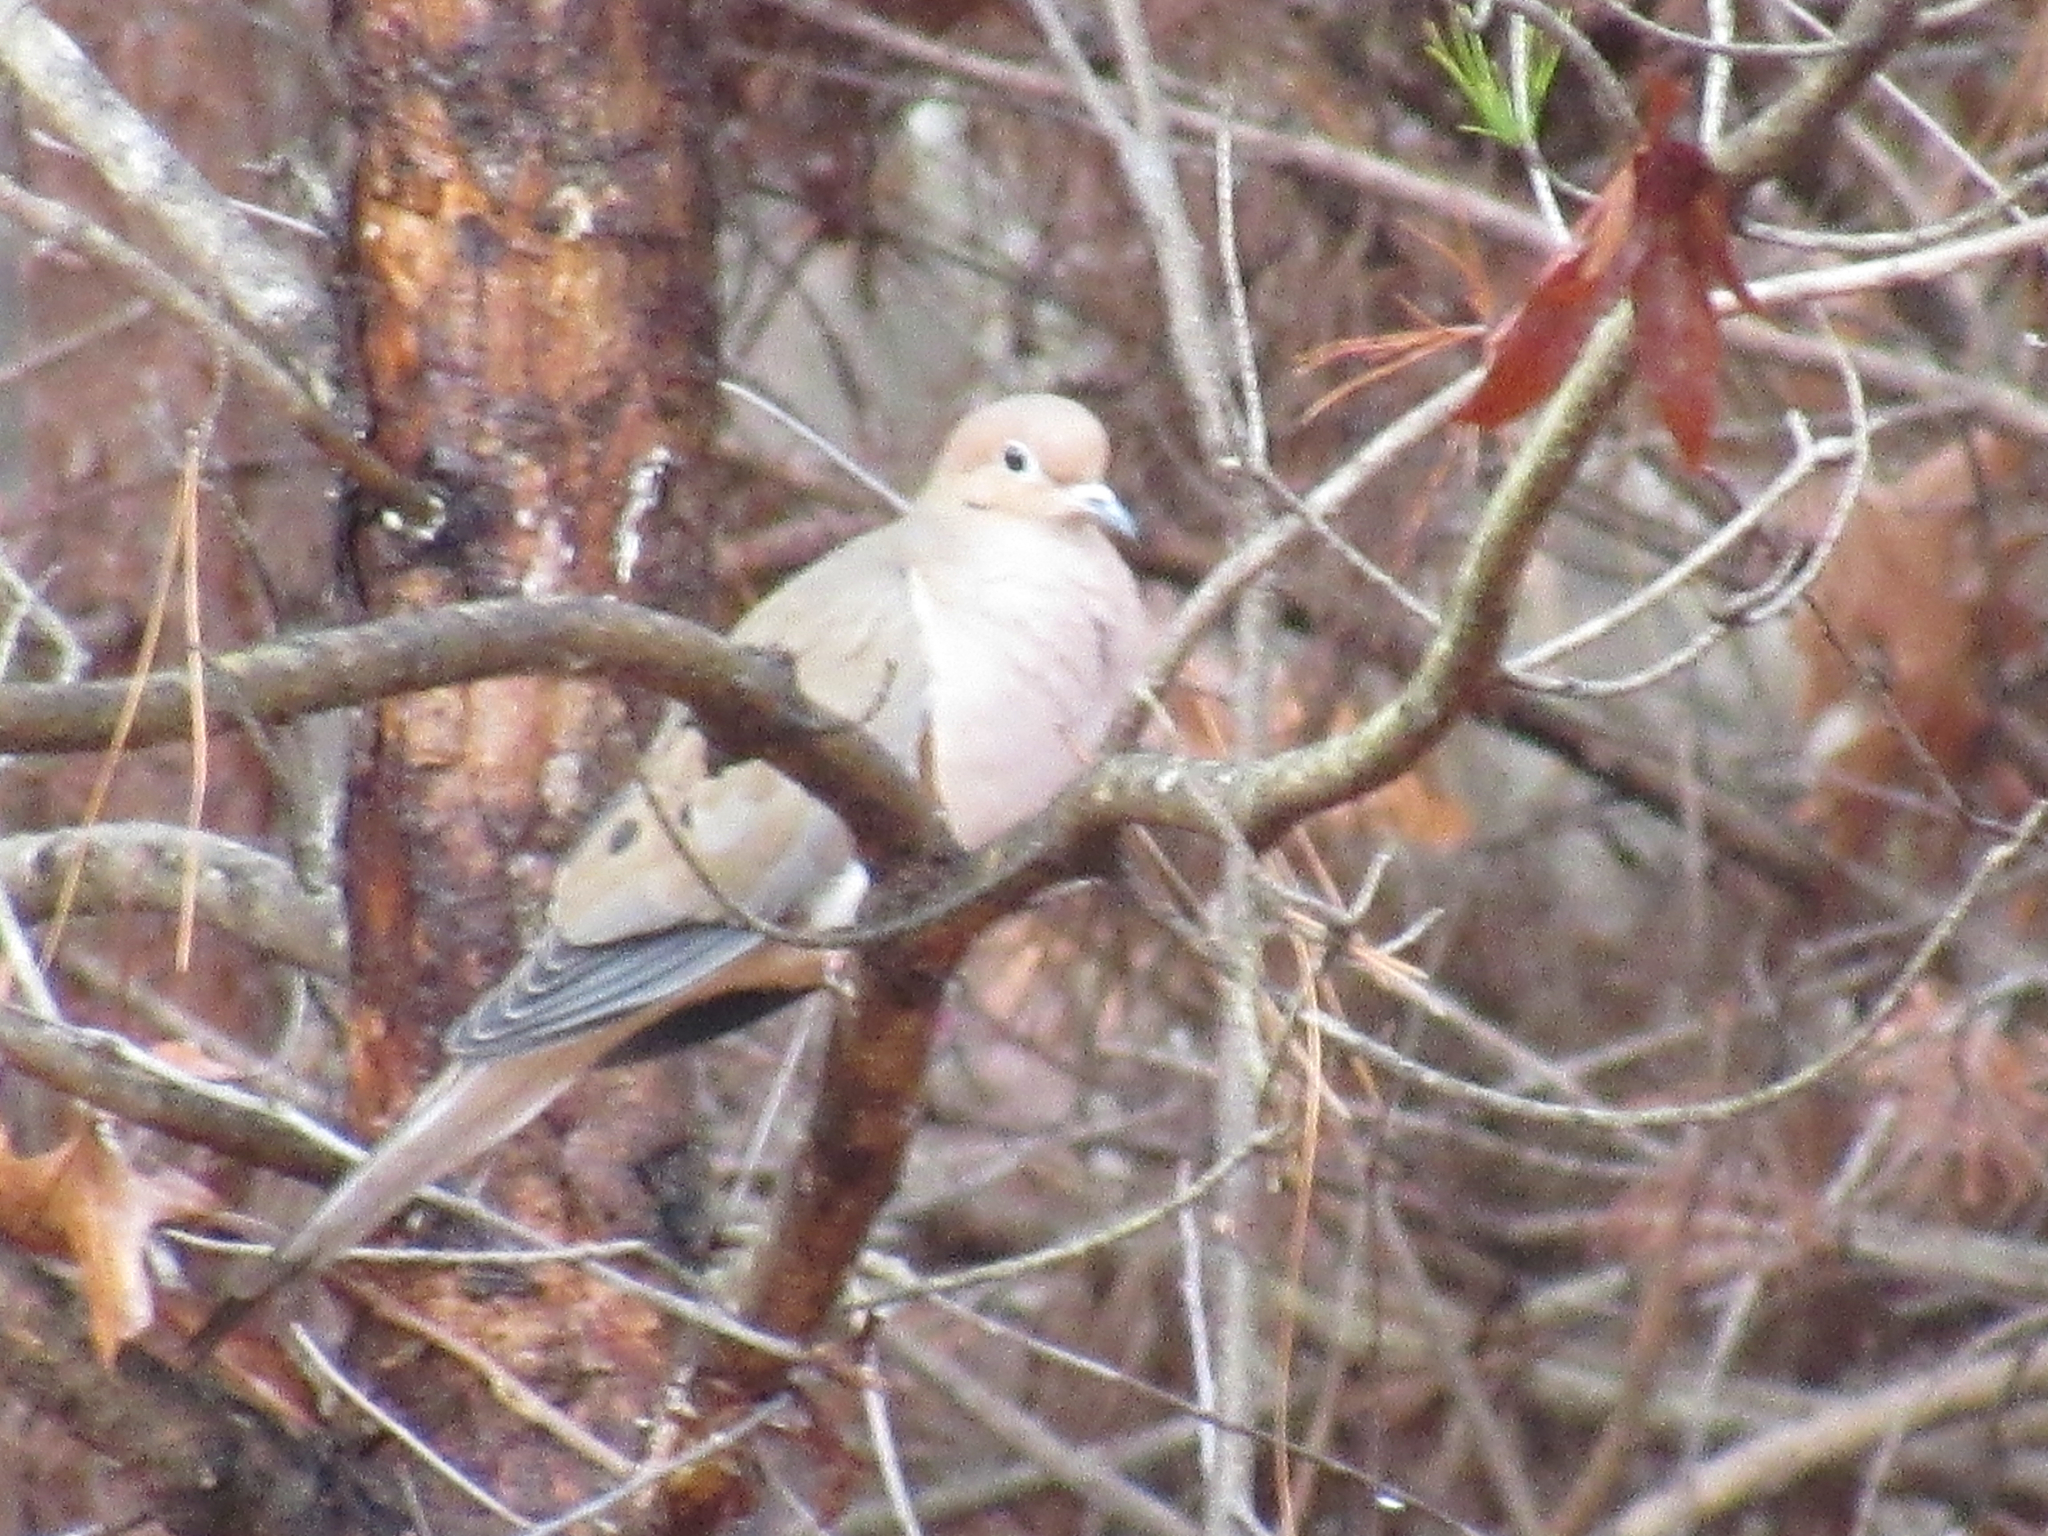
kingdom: Animalia
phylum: Chordata
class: Aves
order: Columbiformes
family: Columbidae
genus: Zenaida
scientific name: Zenaida macroura
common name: Mourning dove
